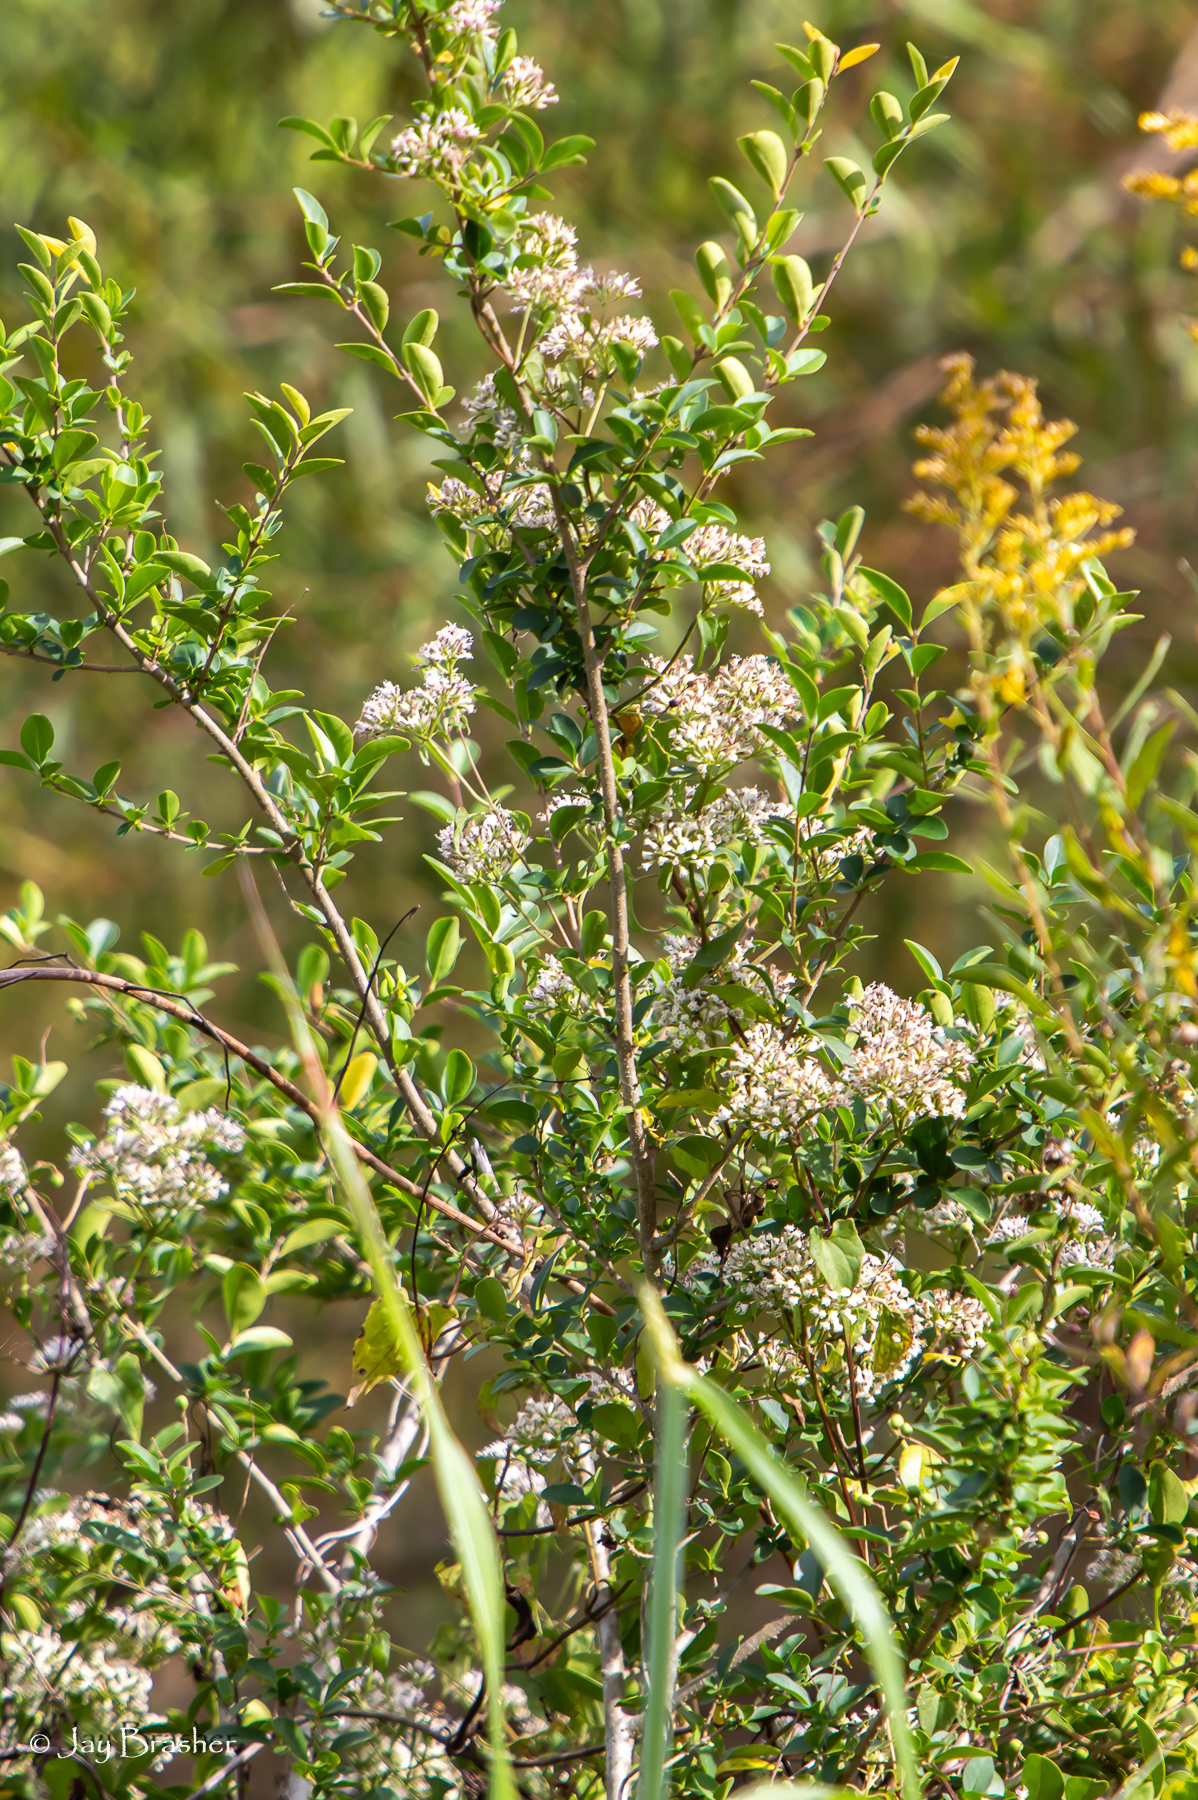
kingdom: Plantae
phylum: Tracheophyta
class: Magnoliopsida
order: Lamiales
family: Oleaceae
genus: Ligustrum
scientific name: Ligustrum sinense
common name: Chinese privet
